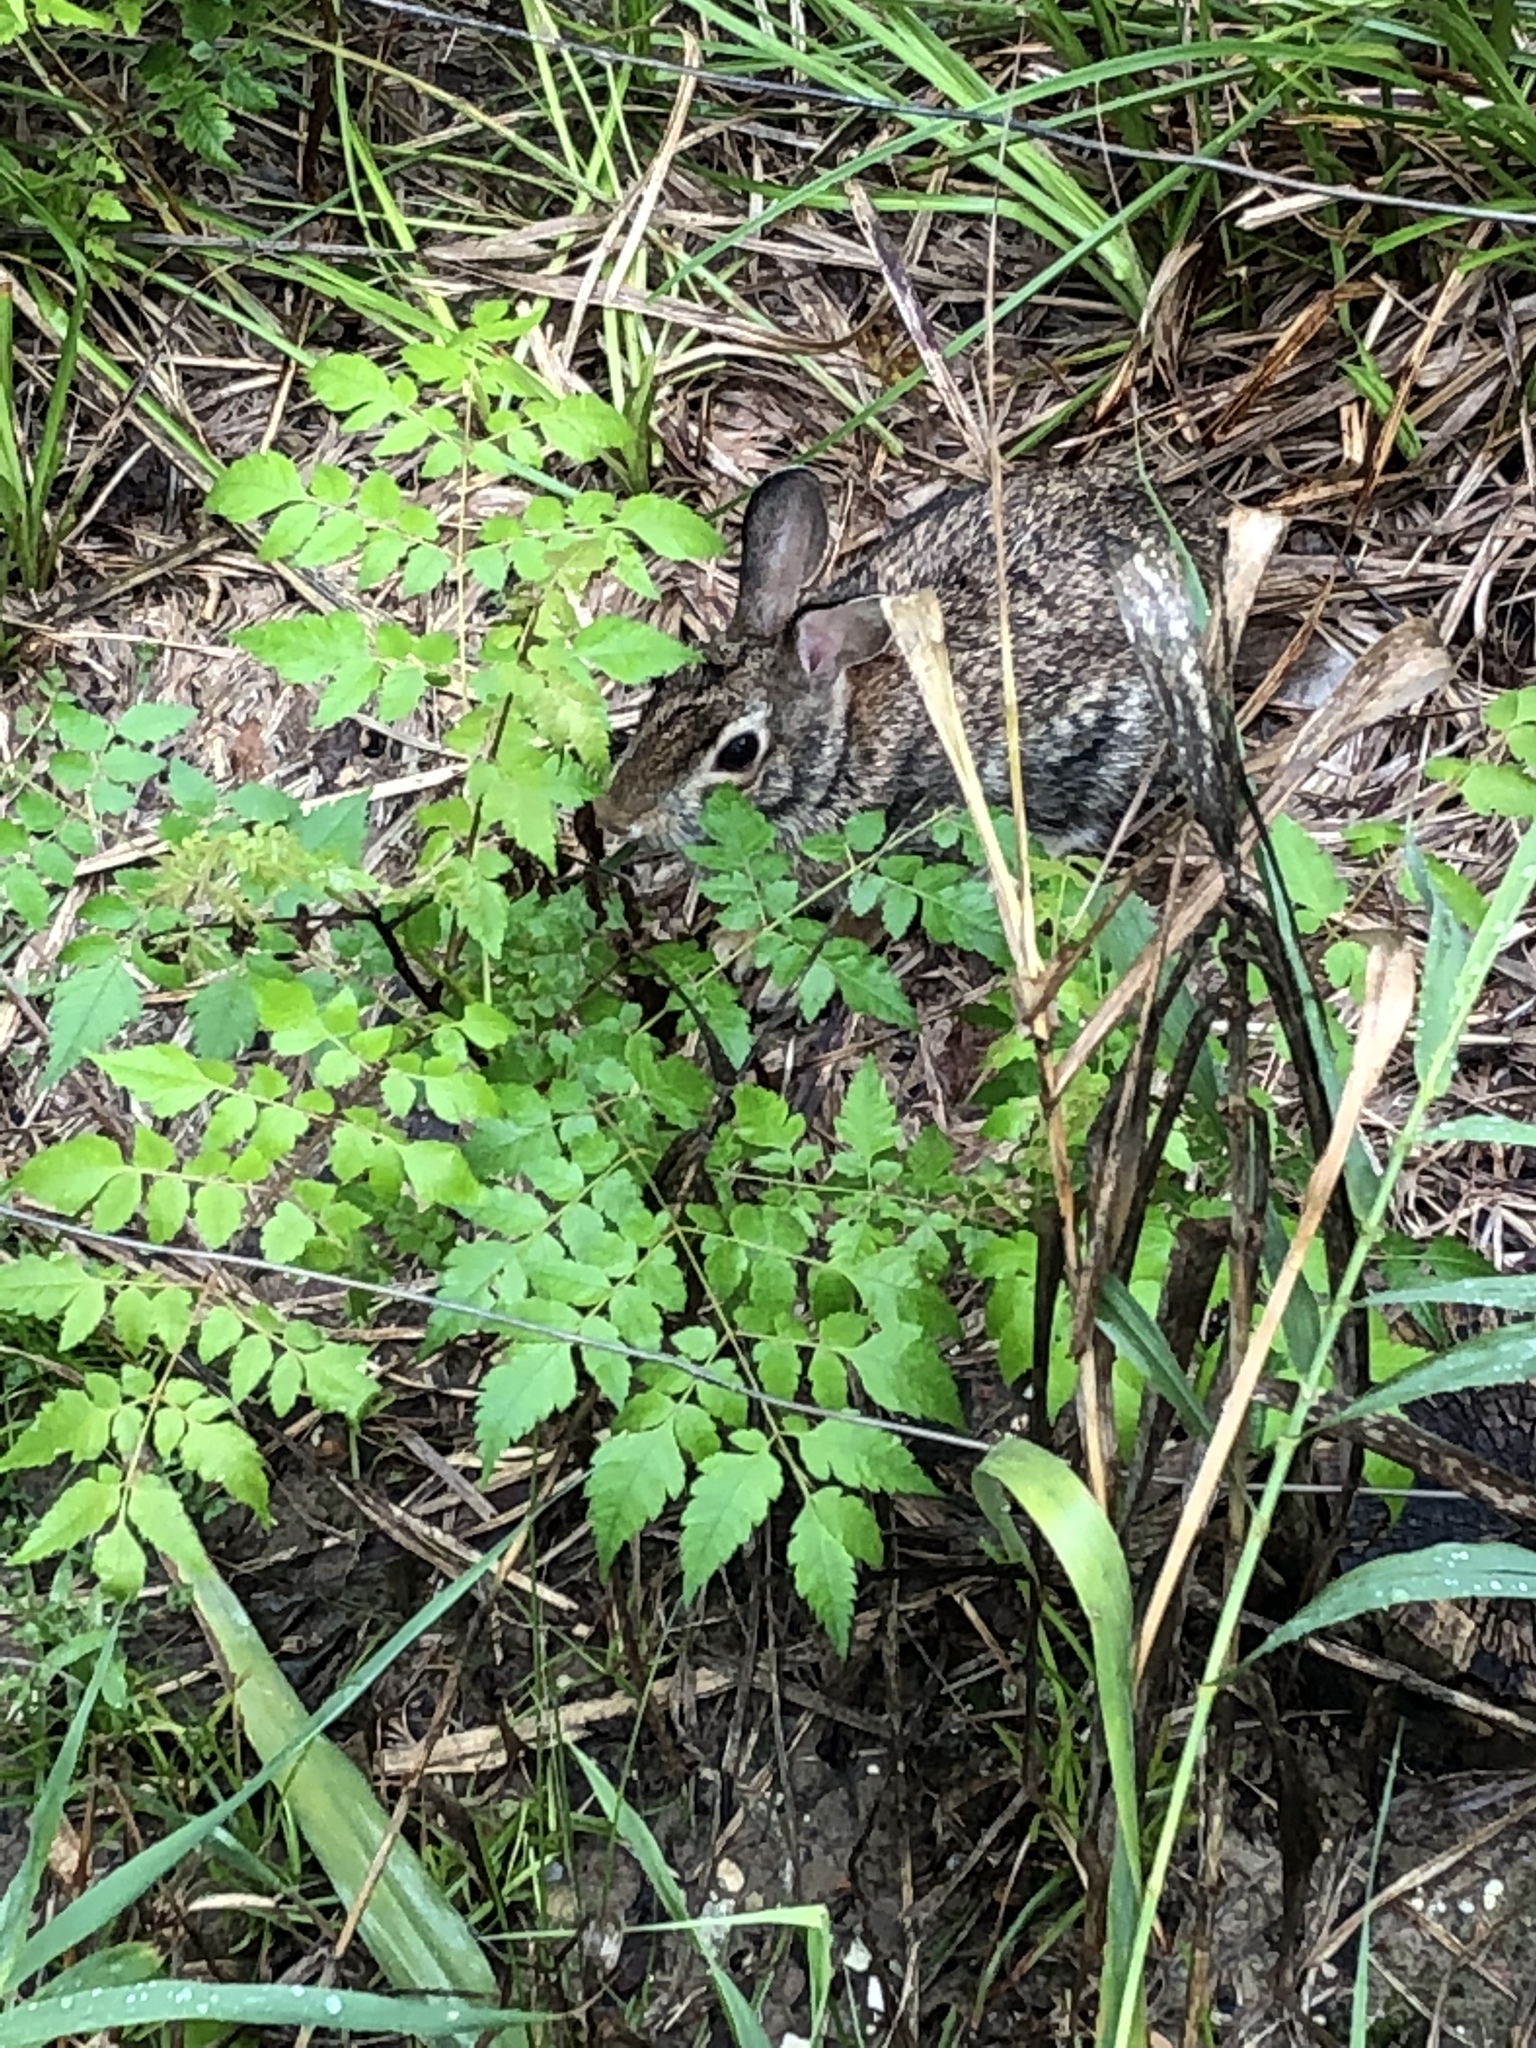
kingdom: Animalia
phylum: Chordata
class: Mammalia
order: Lagomorpha
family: Leporidae
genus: Sylvilagus
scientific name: Sylvilagus floridanus
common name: Eastern cottontail
